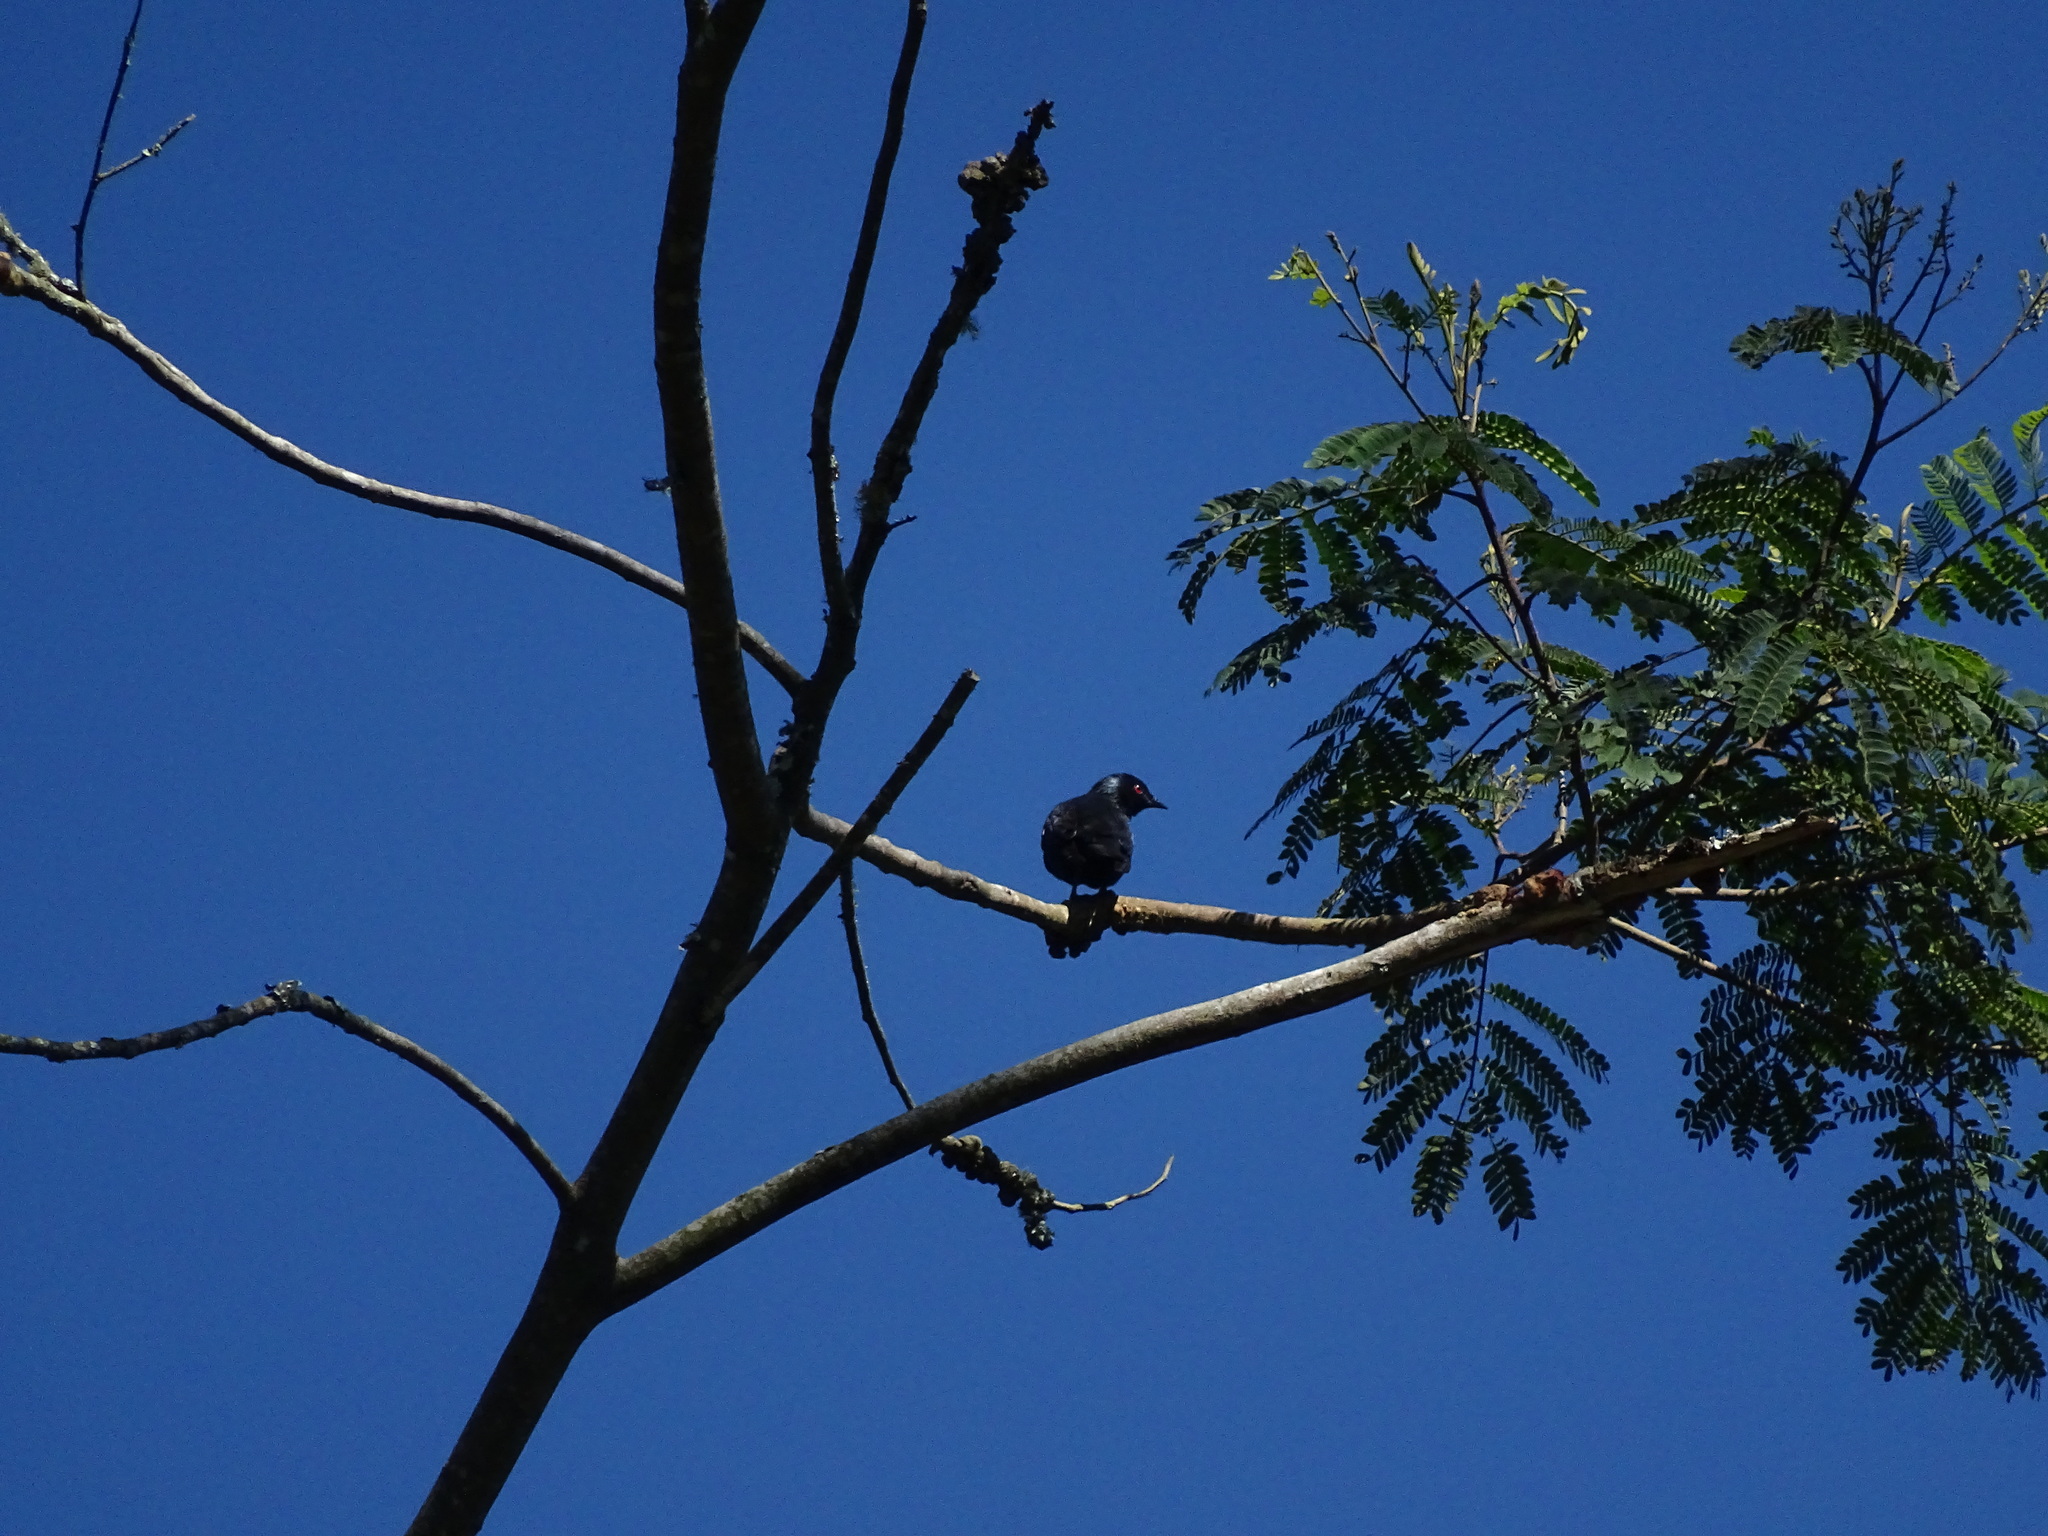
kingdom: Animalia
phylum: Chordata
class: Aves
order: Passeriformes
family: Sturnidae
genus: Aplonis
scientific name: Aplonis minor
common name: Short-tailed starling
